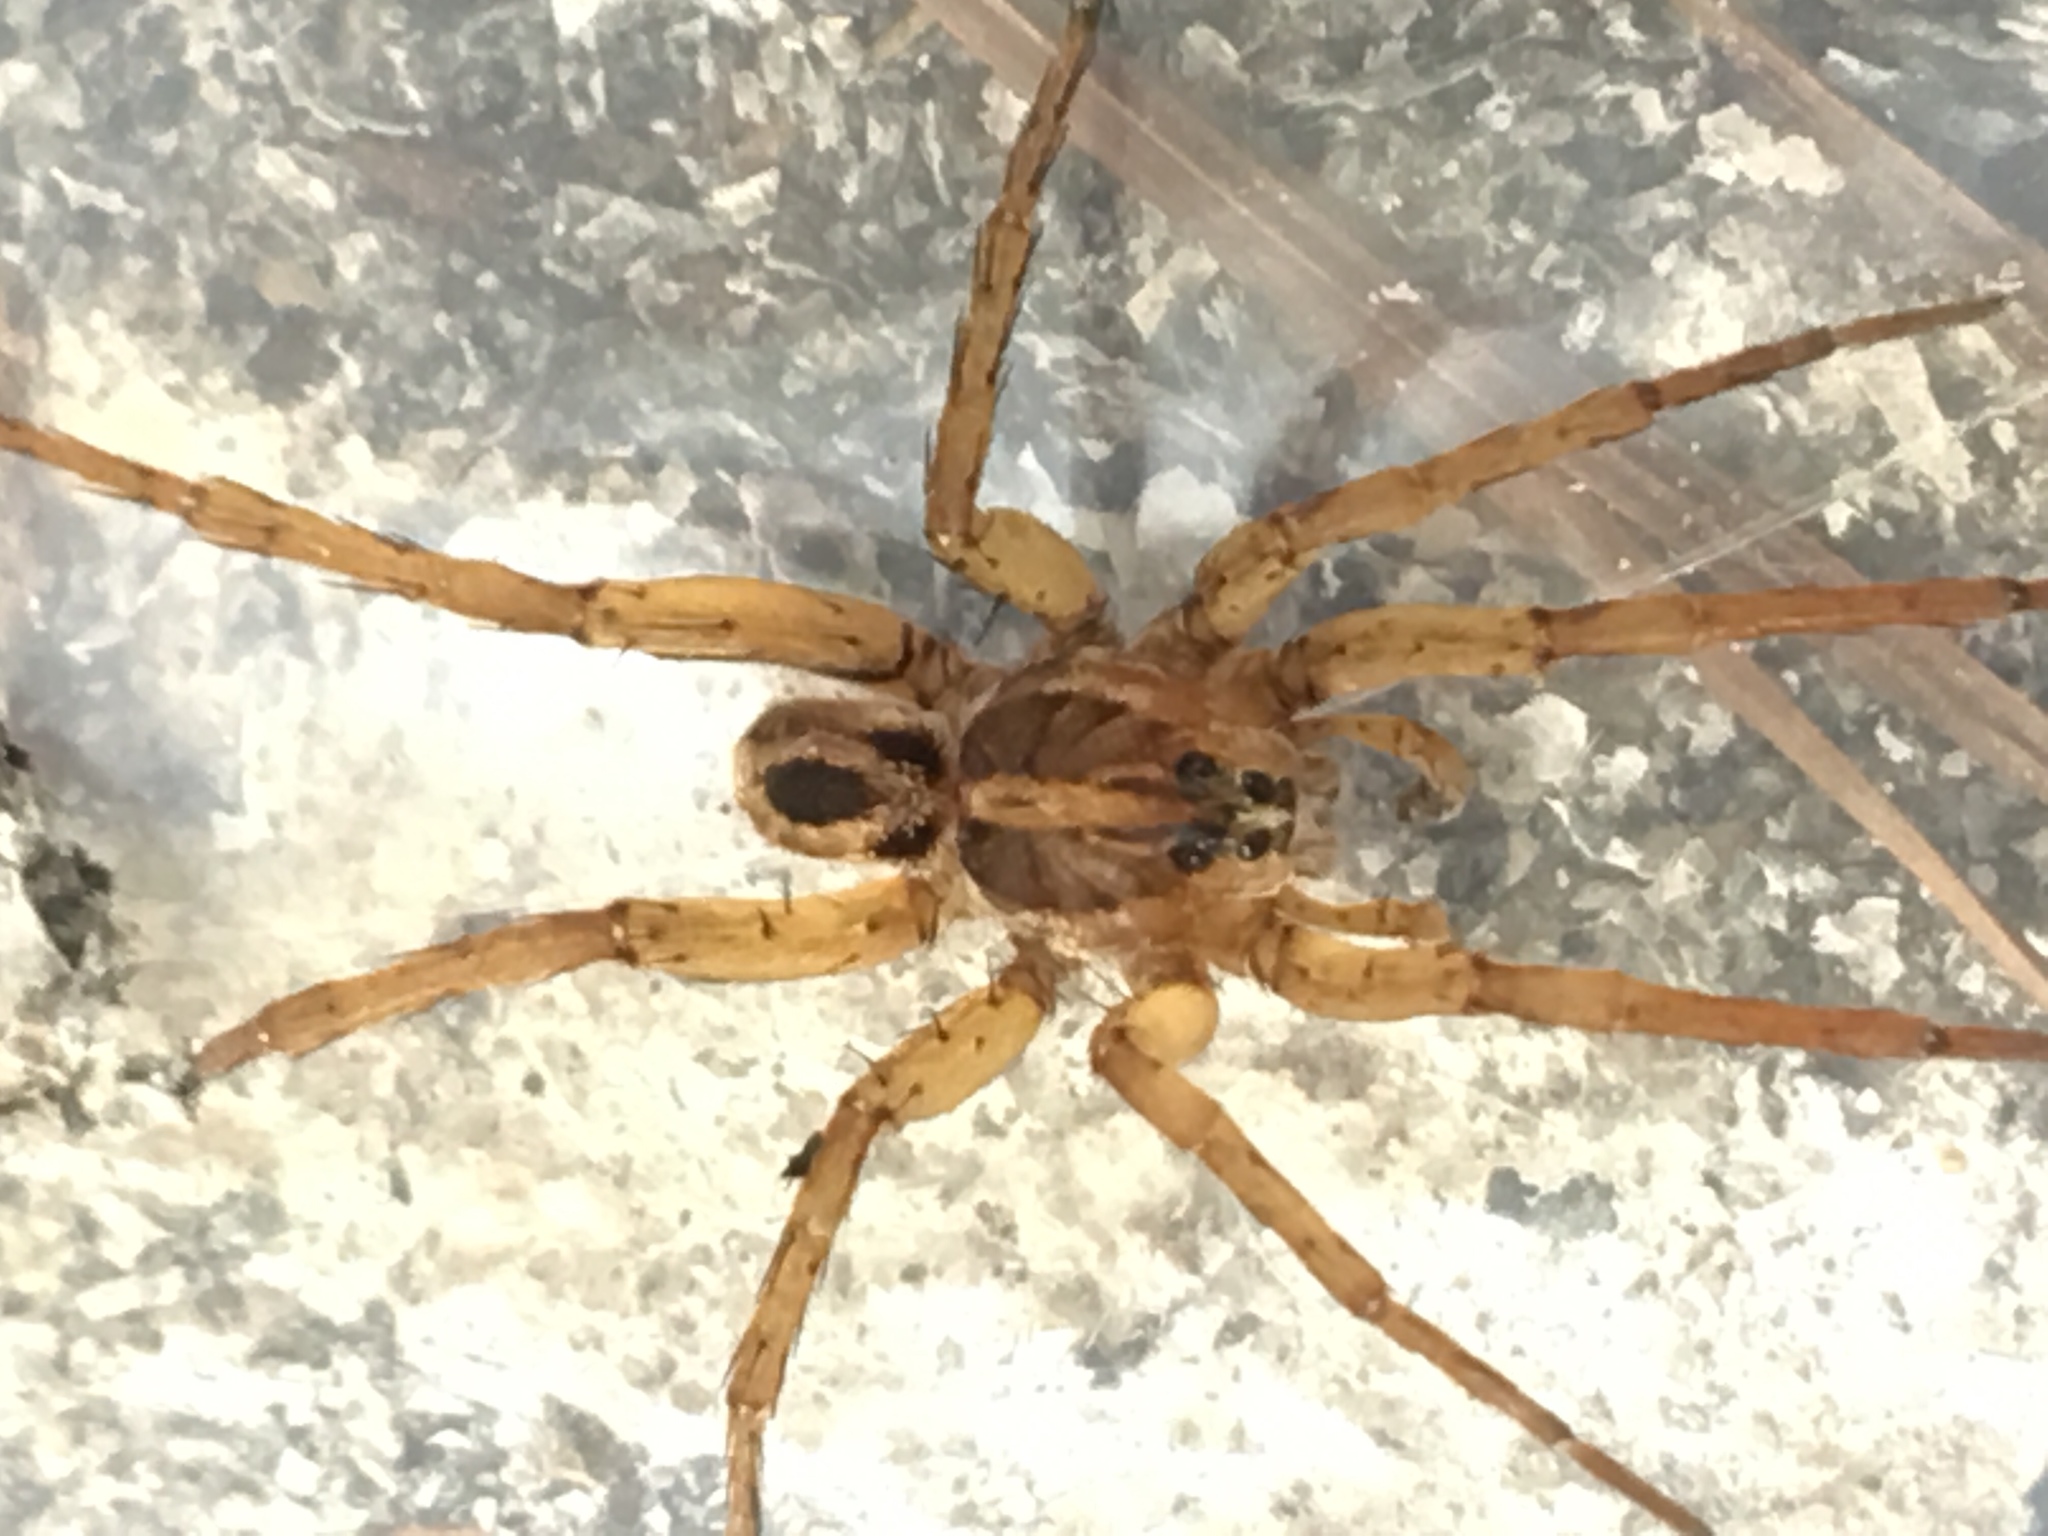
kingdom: Animalia
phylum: Arthropoda
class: Arachnida
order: Araneae
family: Lycosidae
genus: Tigrosa
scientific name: Tigrosa annexa
